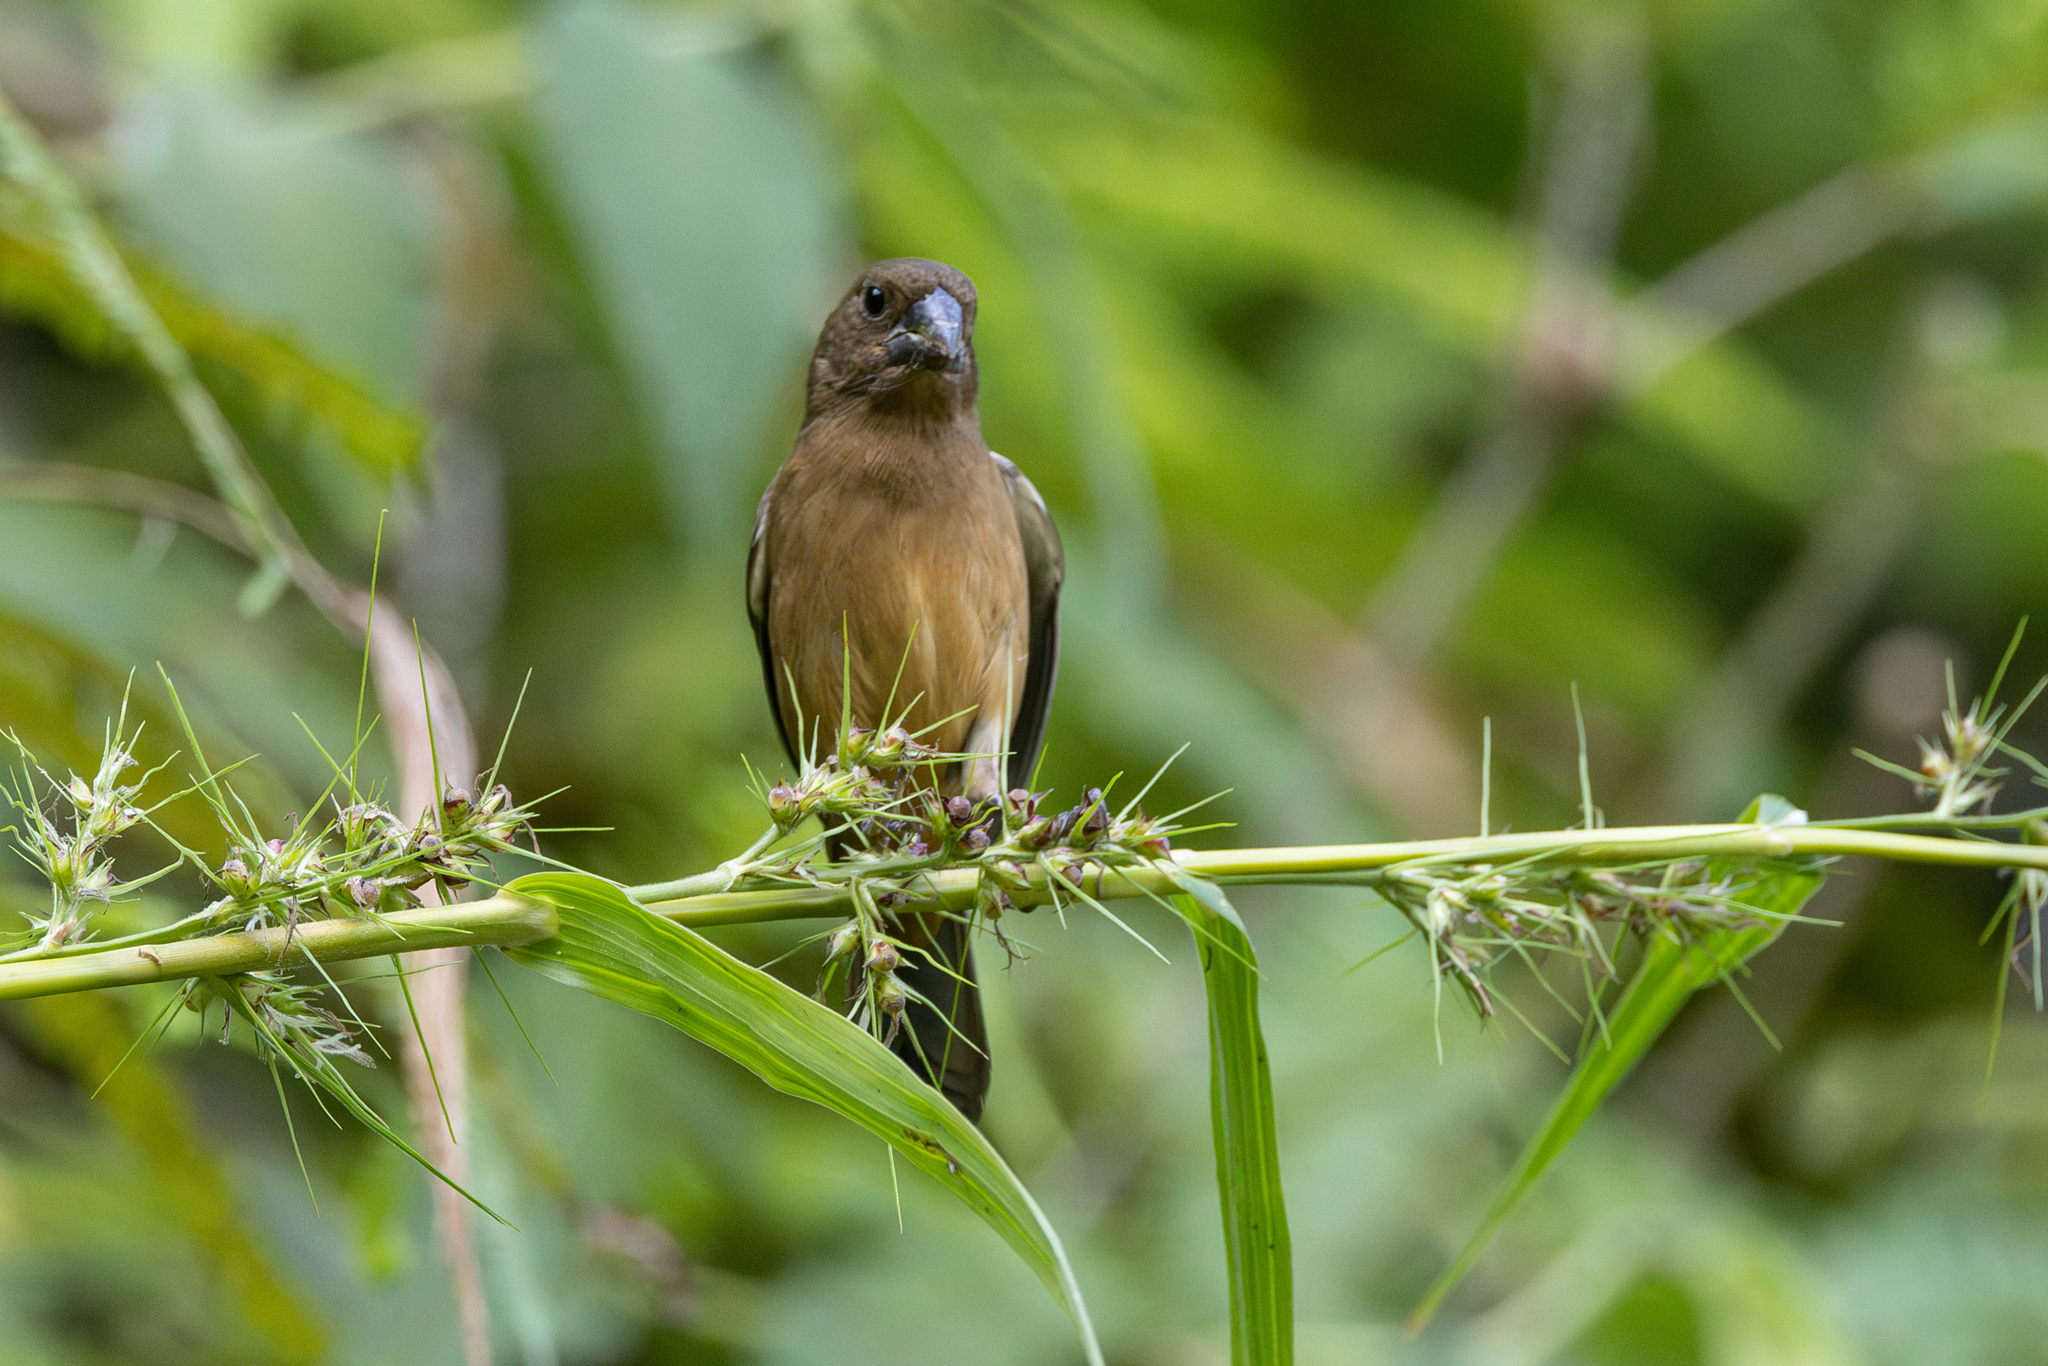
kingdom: Animalia
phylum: Chordata
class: Aves
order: Passeriformes
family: Thraupidae
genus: Sporophila
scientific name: Sporophila angolensis
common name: Chestnut-bellied seed-finch
